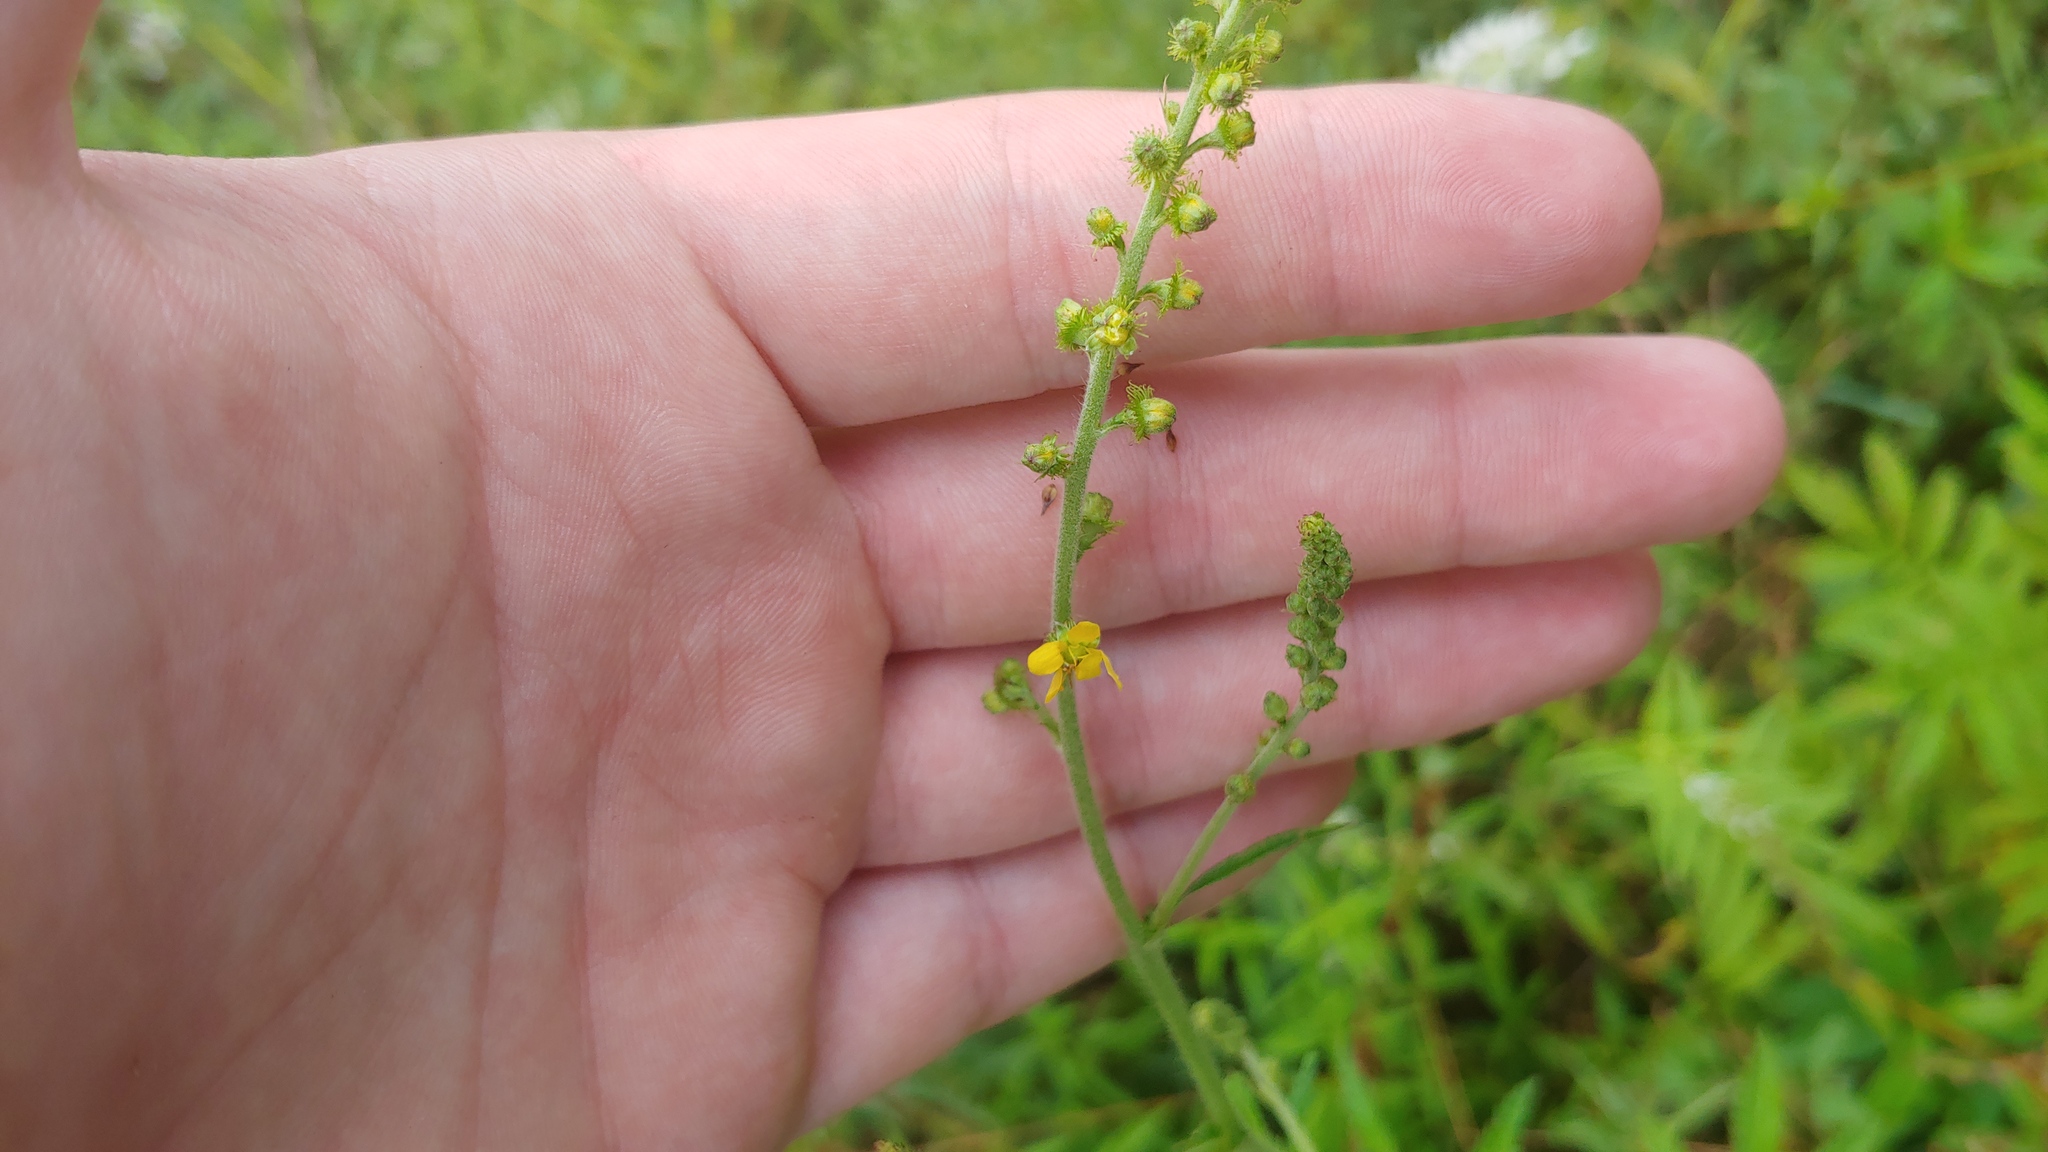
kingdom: Plantae
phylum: Tracheophyta
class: Magnoliopsida
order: Rosales
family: Rosaceae
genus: Agrimonia
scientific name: Agrimonia parviflora
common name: Harvest-lice
